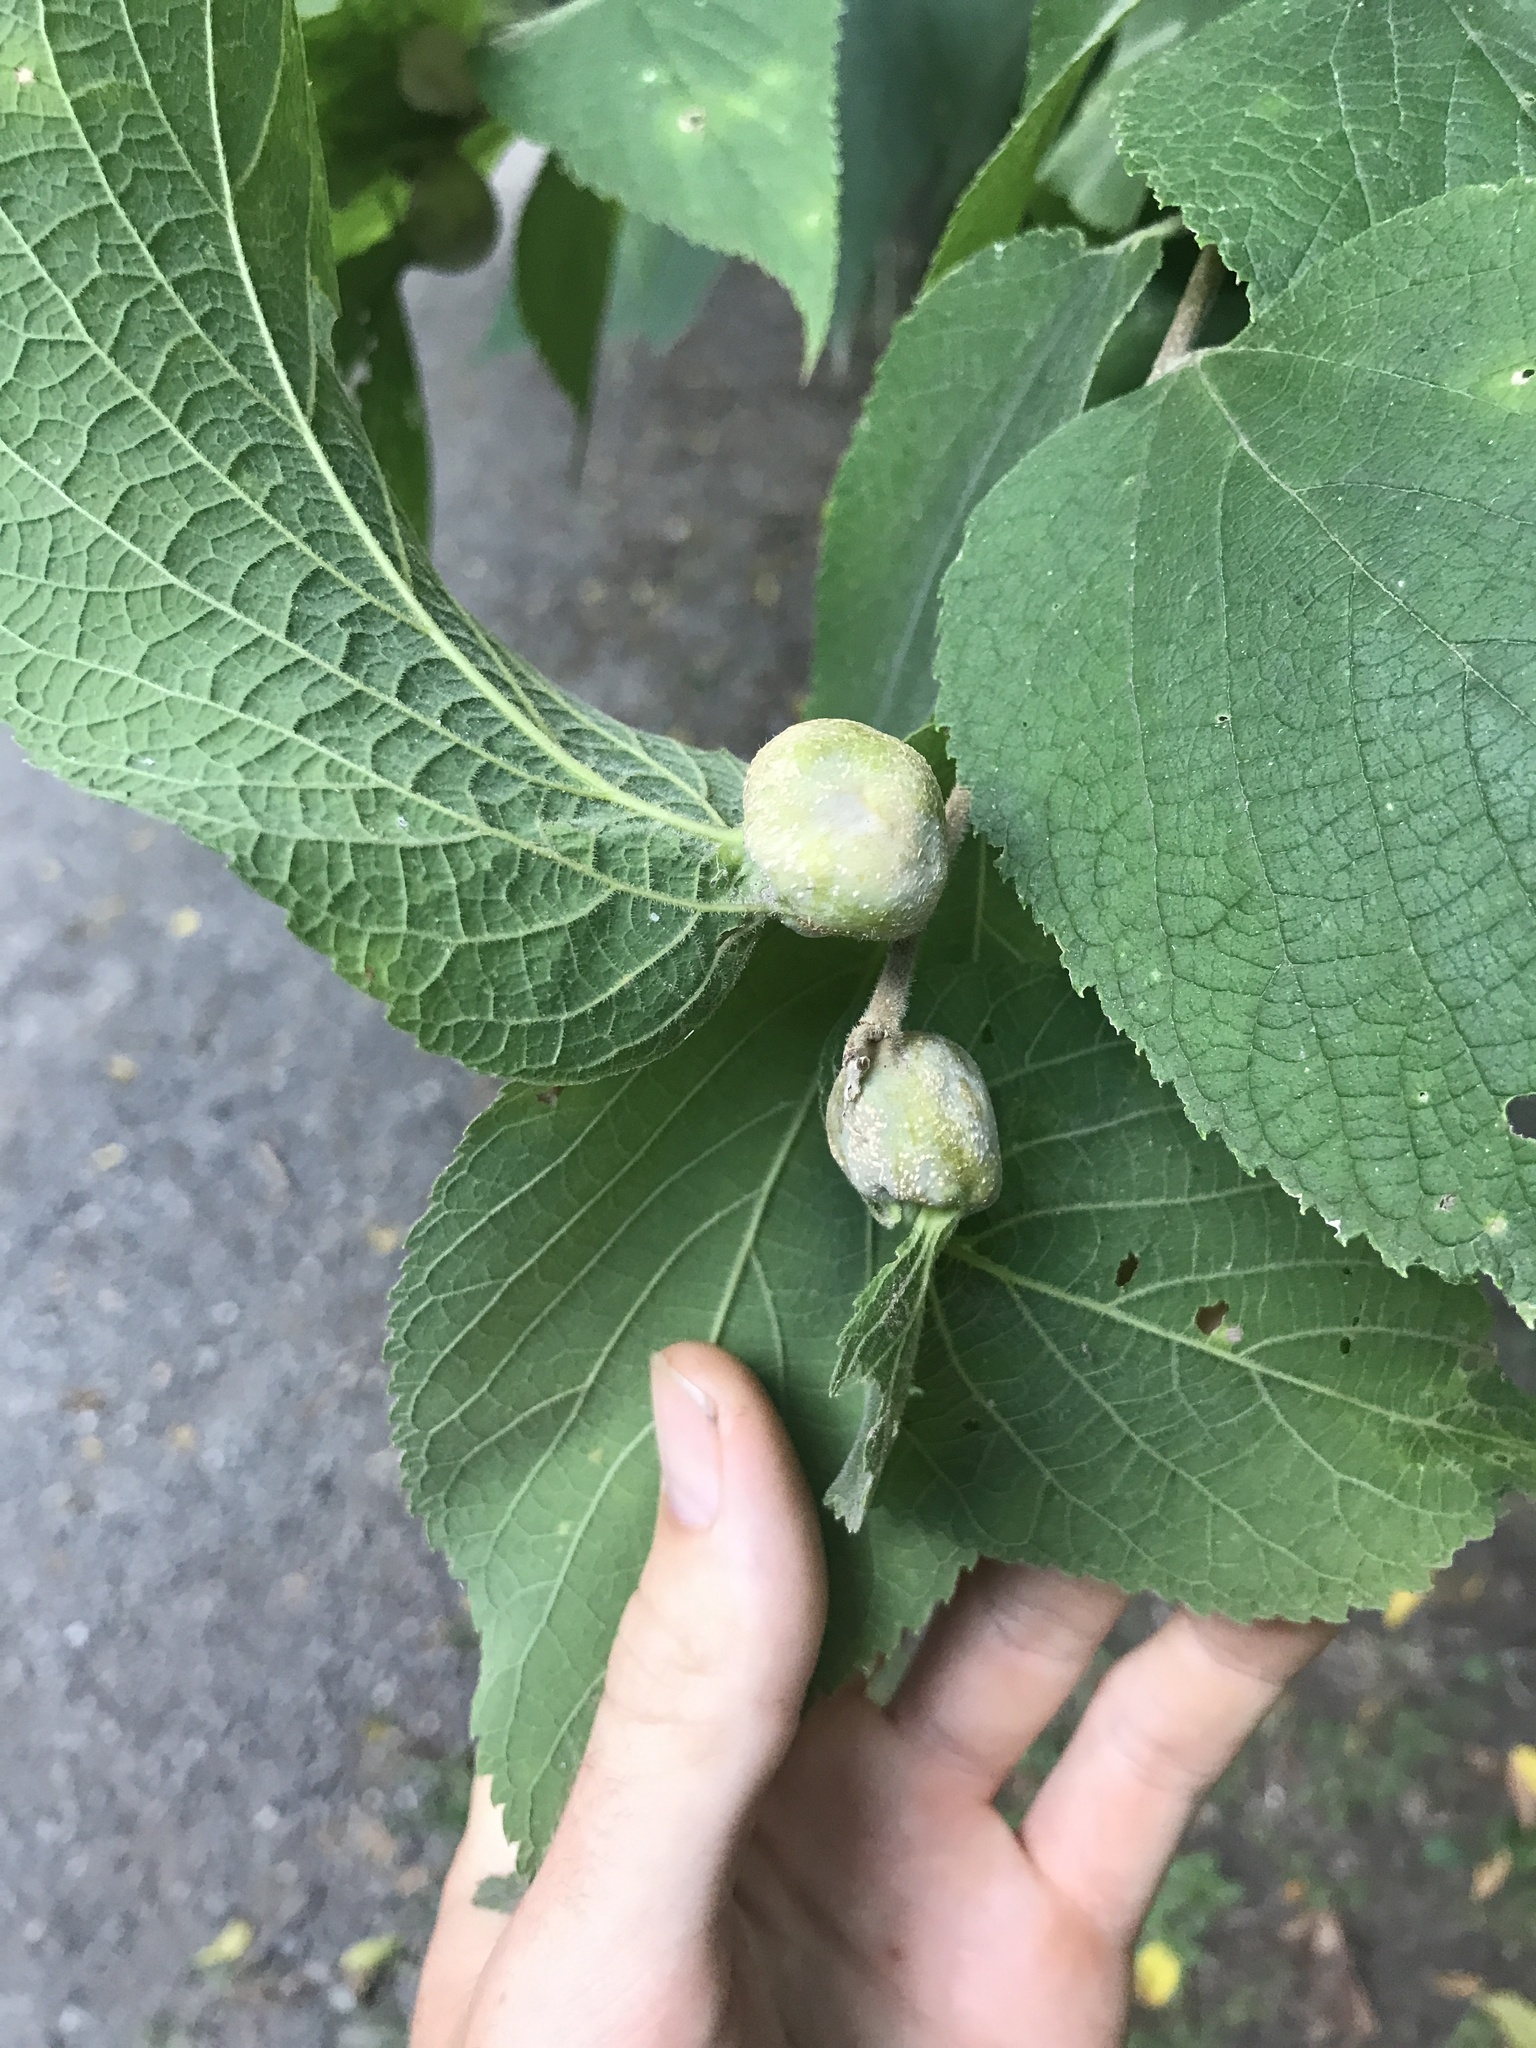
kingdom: Animalia
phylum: Arthropoda
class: Insecta
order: Hemiptera
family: Aphalaridae
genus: Pachypsylla
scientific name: Pachypsylla venusta
